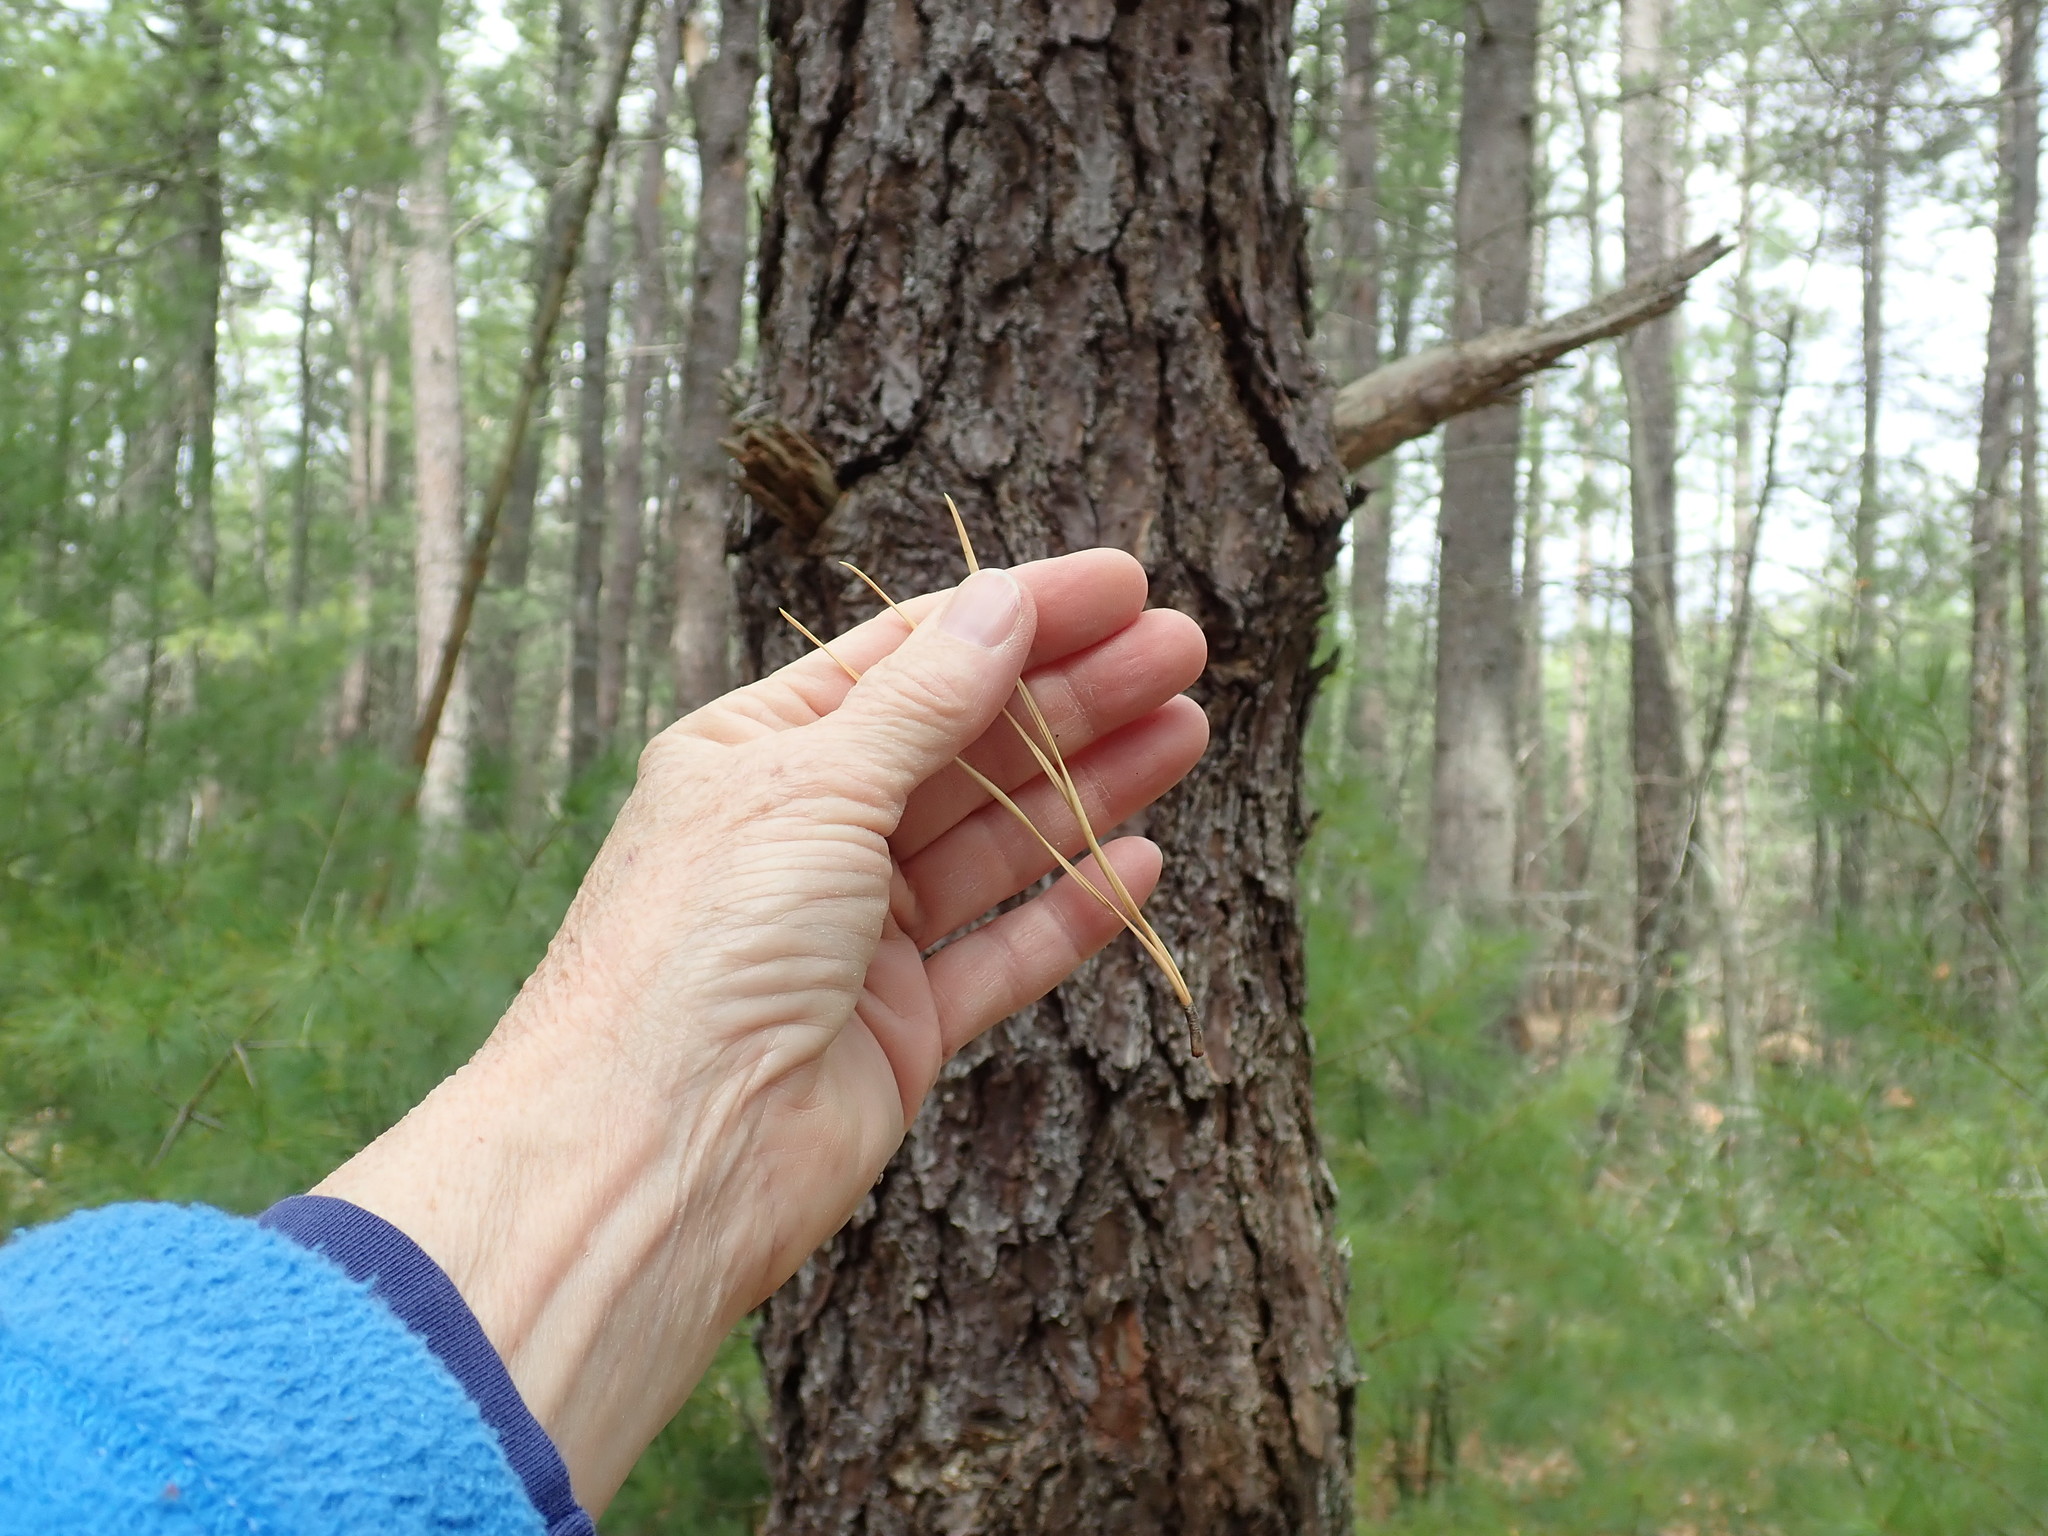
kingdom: Plantae
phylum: Tracheophyta
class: Pinopsida
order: Pinales
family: Pinaceae
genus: Pinus
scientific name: Pinus rigida
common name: Pitch pine
